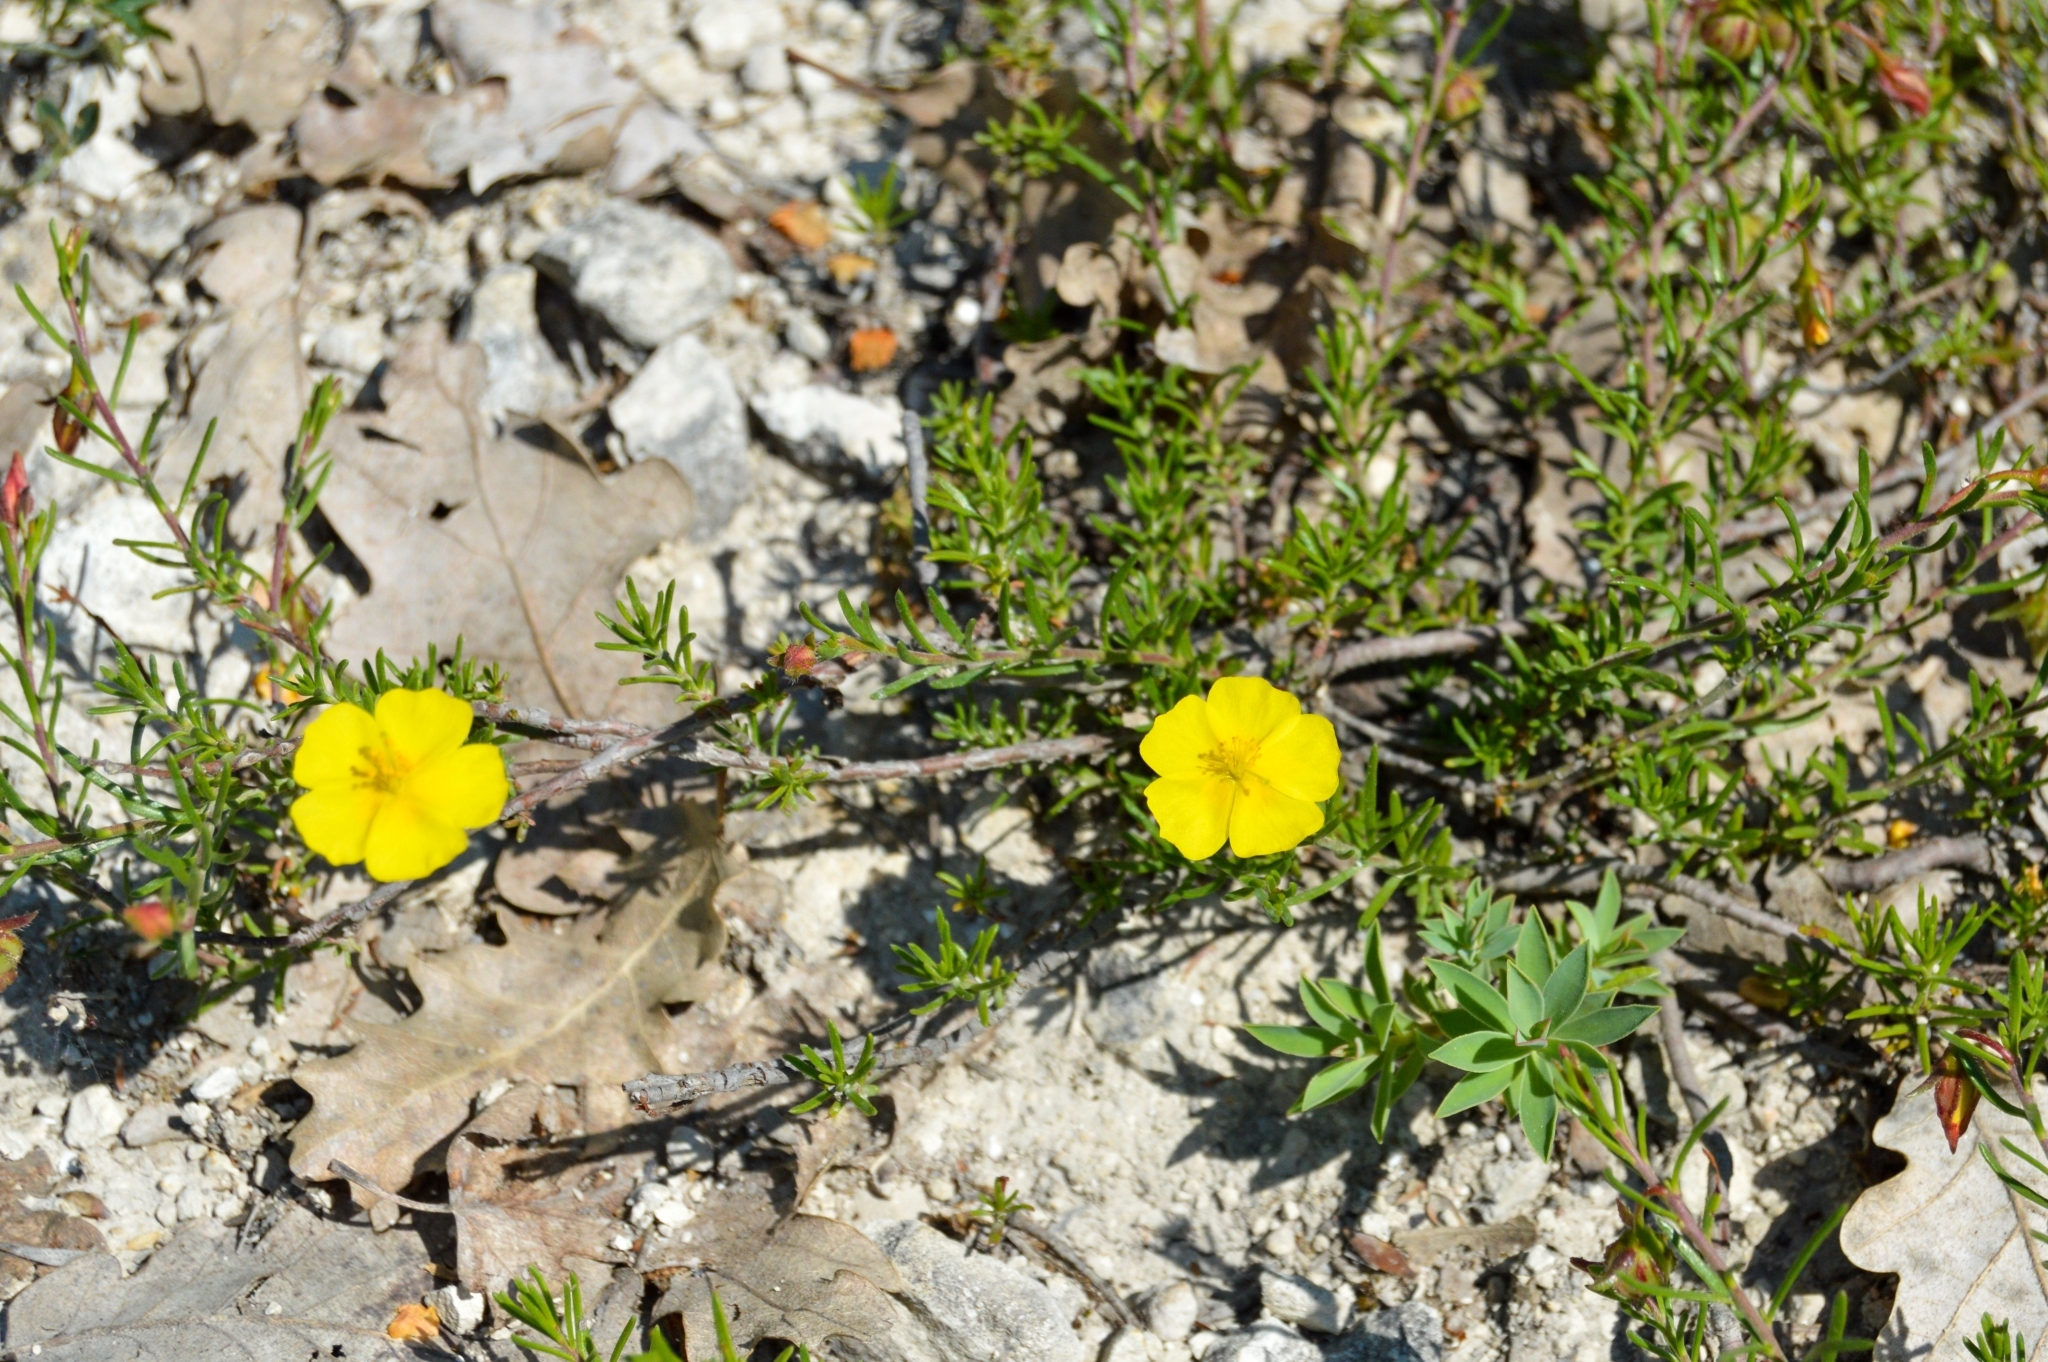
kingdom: Plantae
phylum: Tracheophyta
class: Magnoliopsida
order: Malvales
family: Cistaceae
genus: Fumana
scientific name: Fumana procumbens
